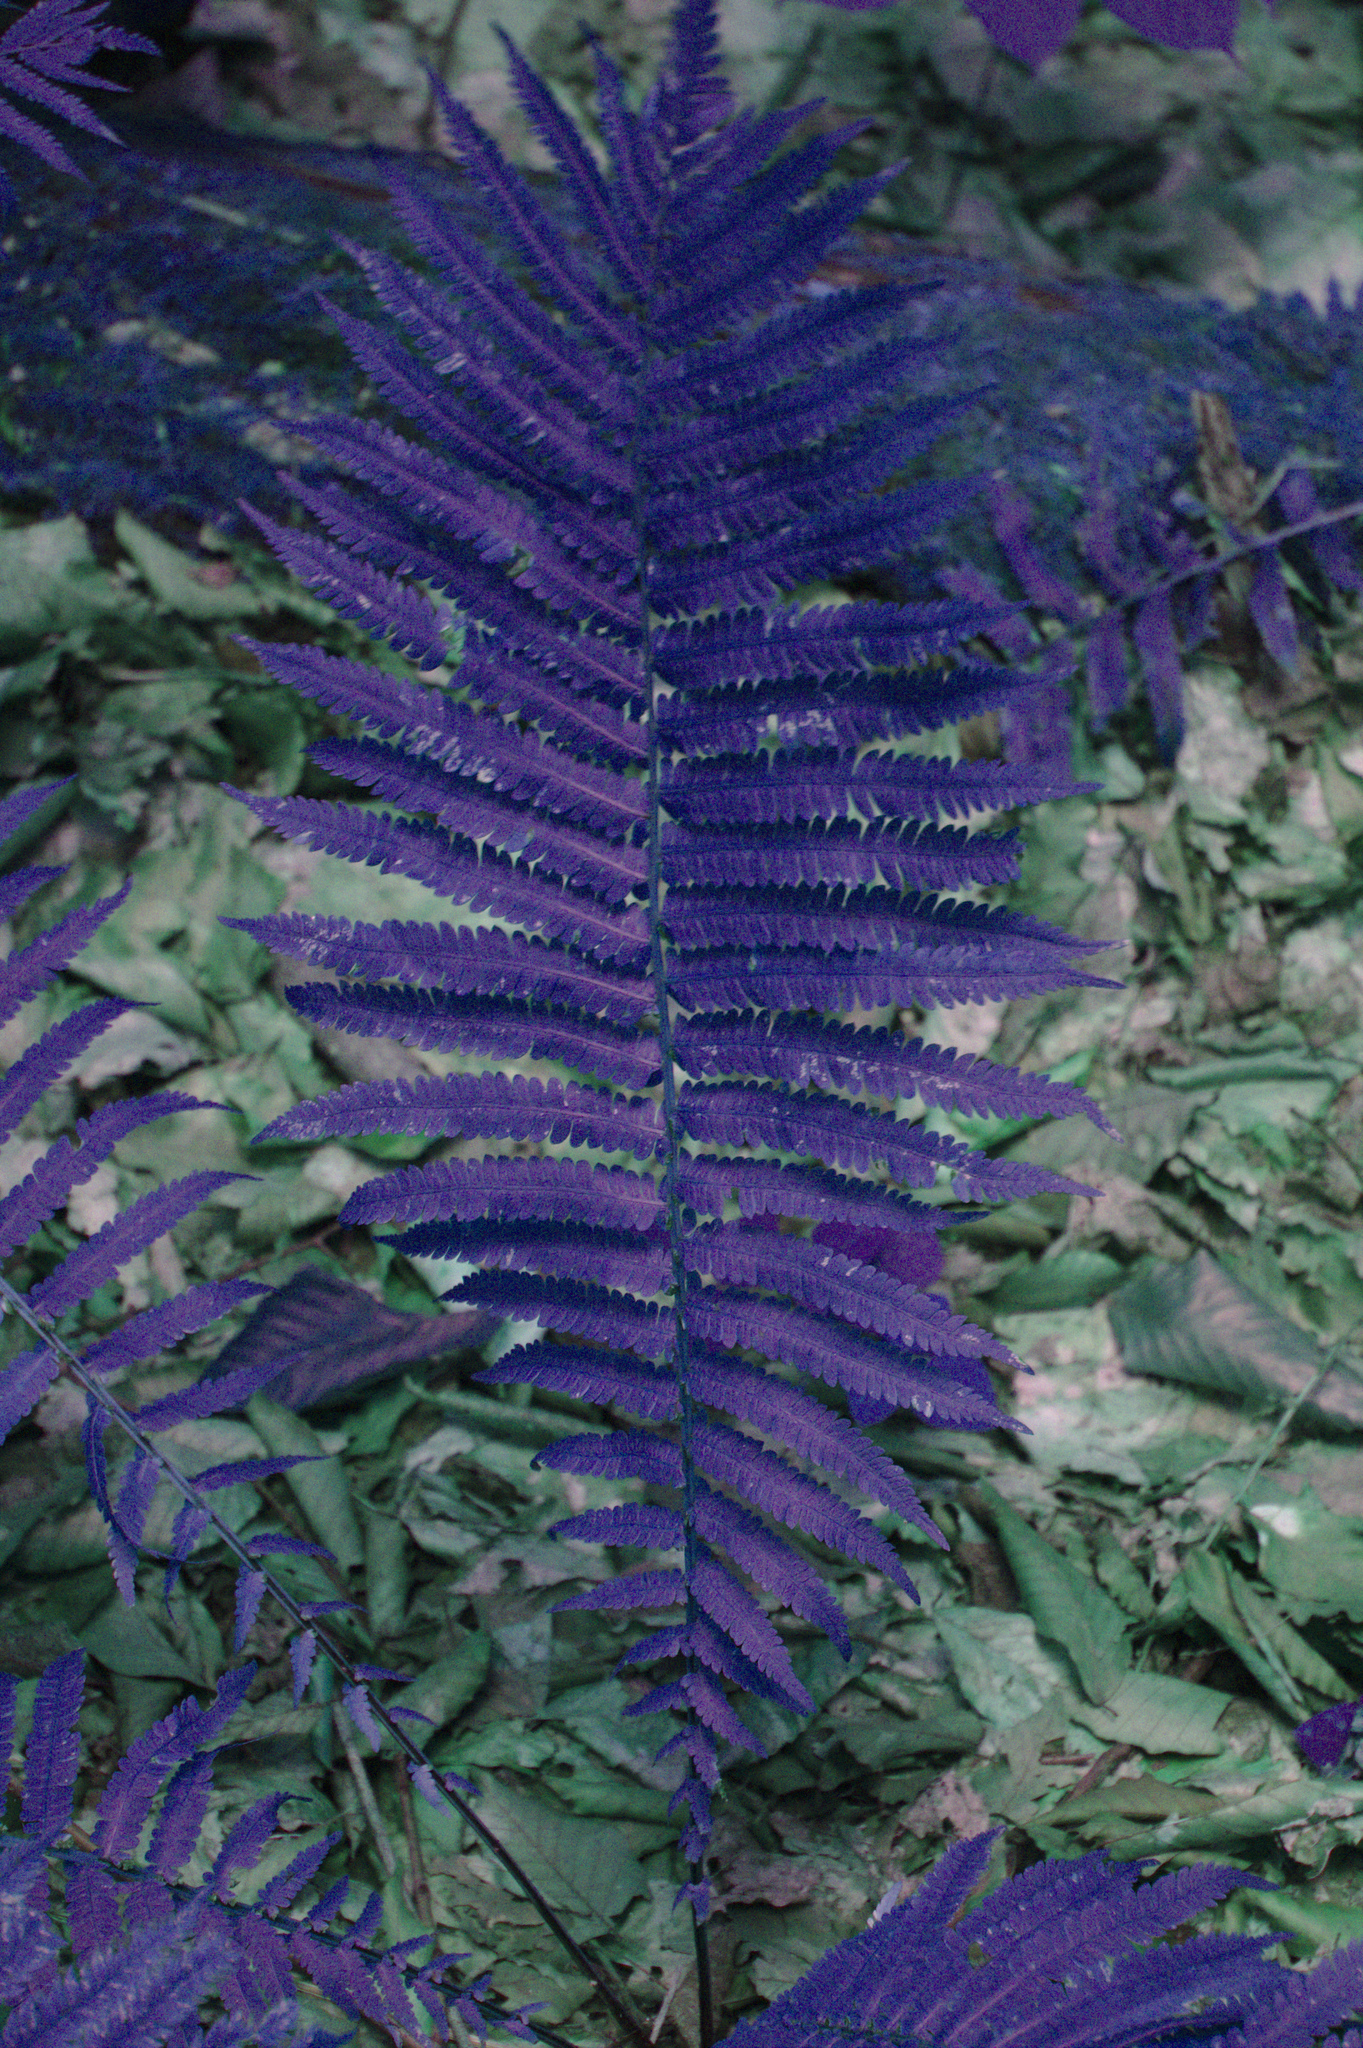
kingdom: Plantae
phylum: Tracheophyta
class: Polypodiopsida
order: Polypodiales
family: Onocleaceae
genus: Matteuccia
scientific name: Matteuccia struthiopteris
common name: Ostrich fern
